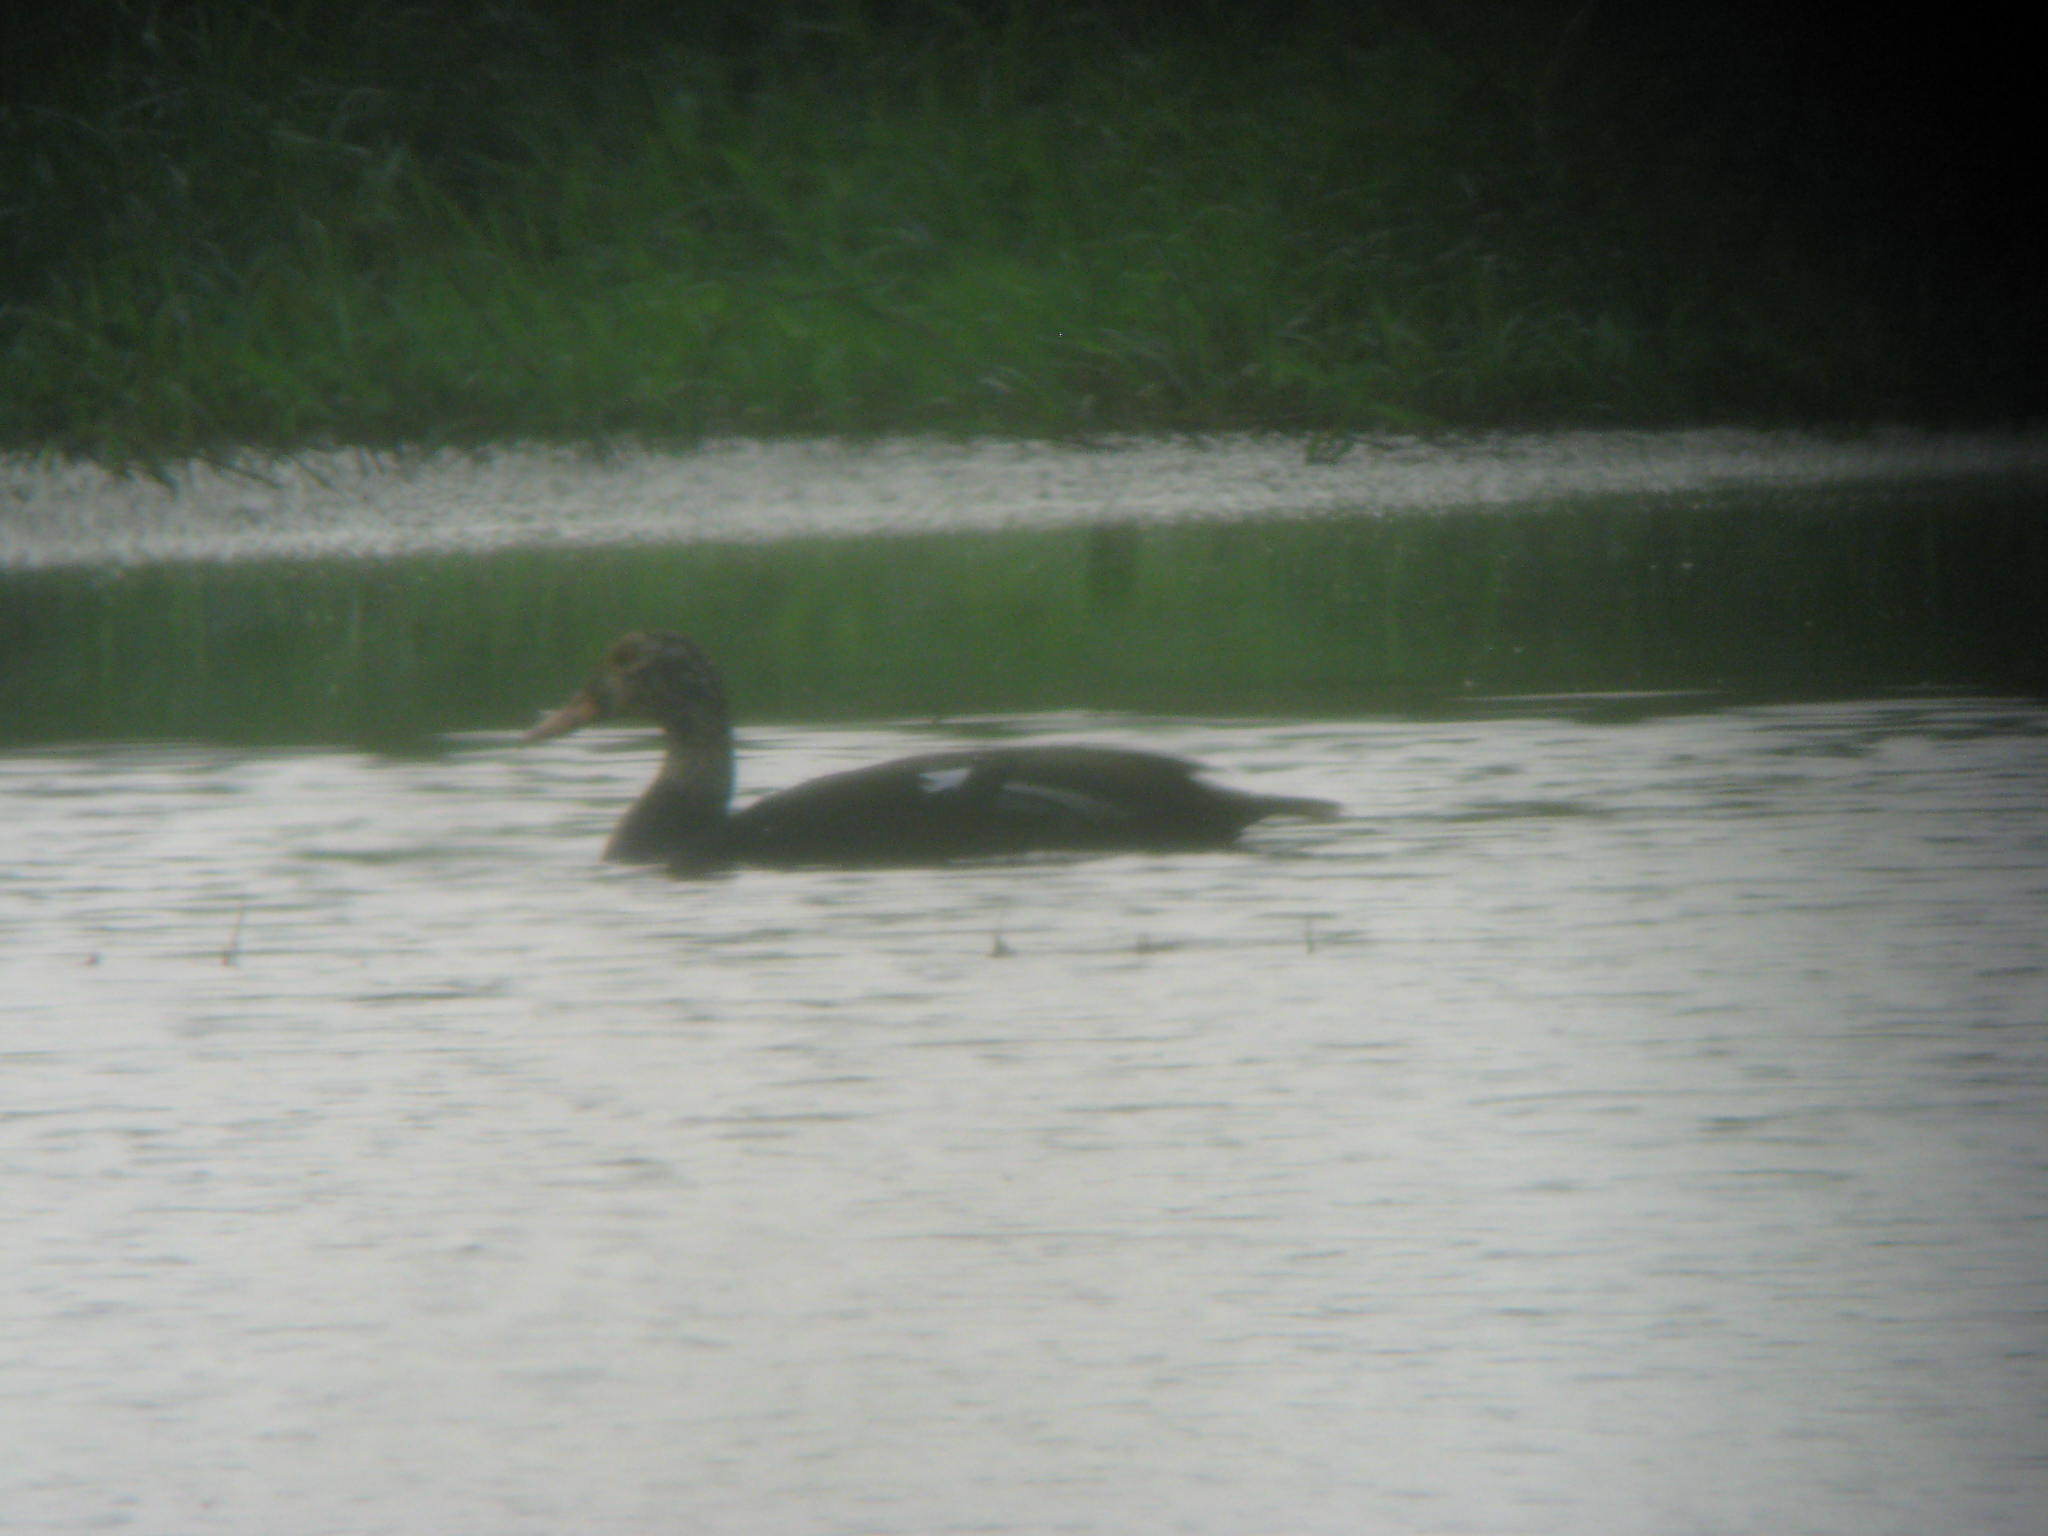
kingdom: Animalia
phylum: Chordata
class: Aves
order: Anseriformes
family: Anatidae
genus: Asarcornis
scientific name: Asarcornis scutulata
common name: White-winged duck
